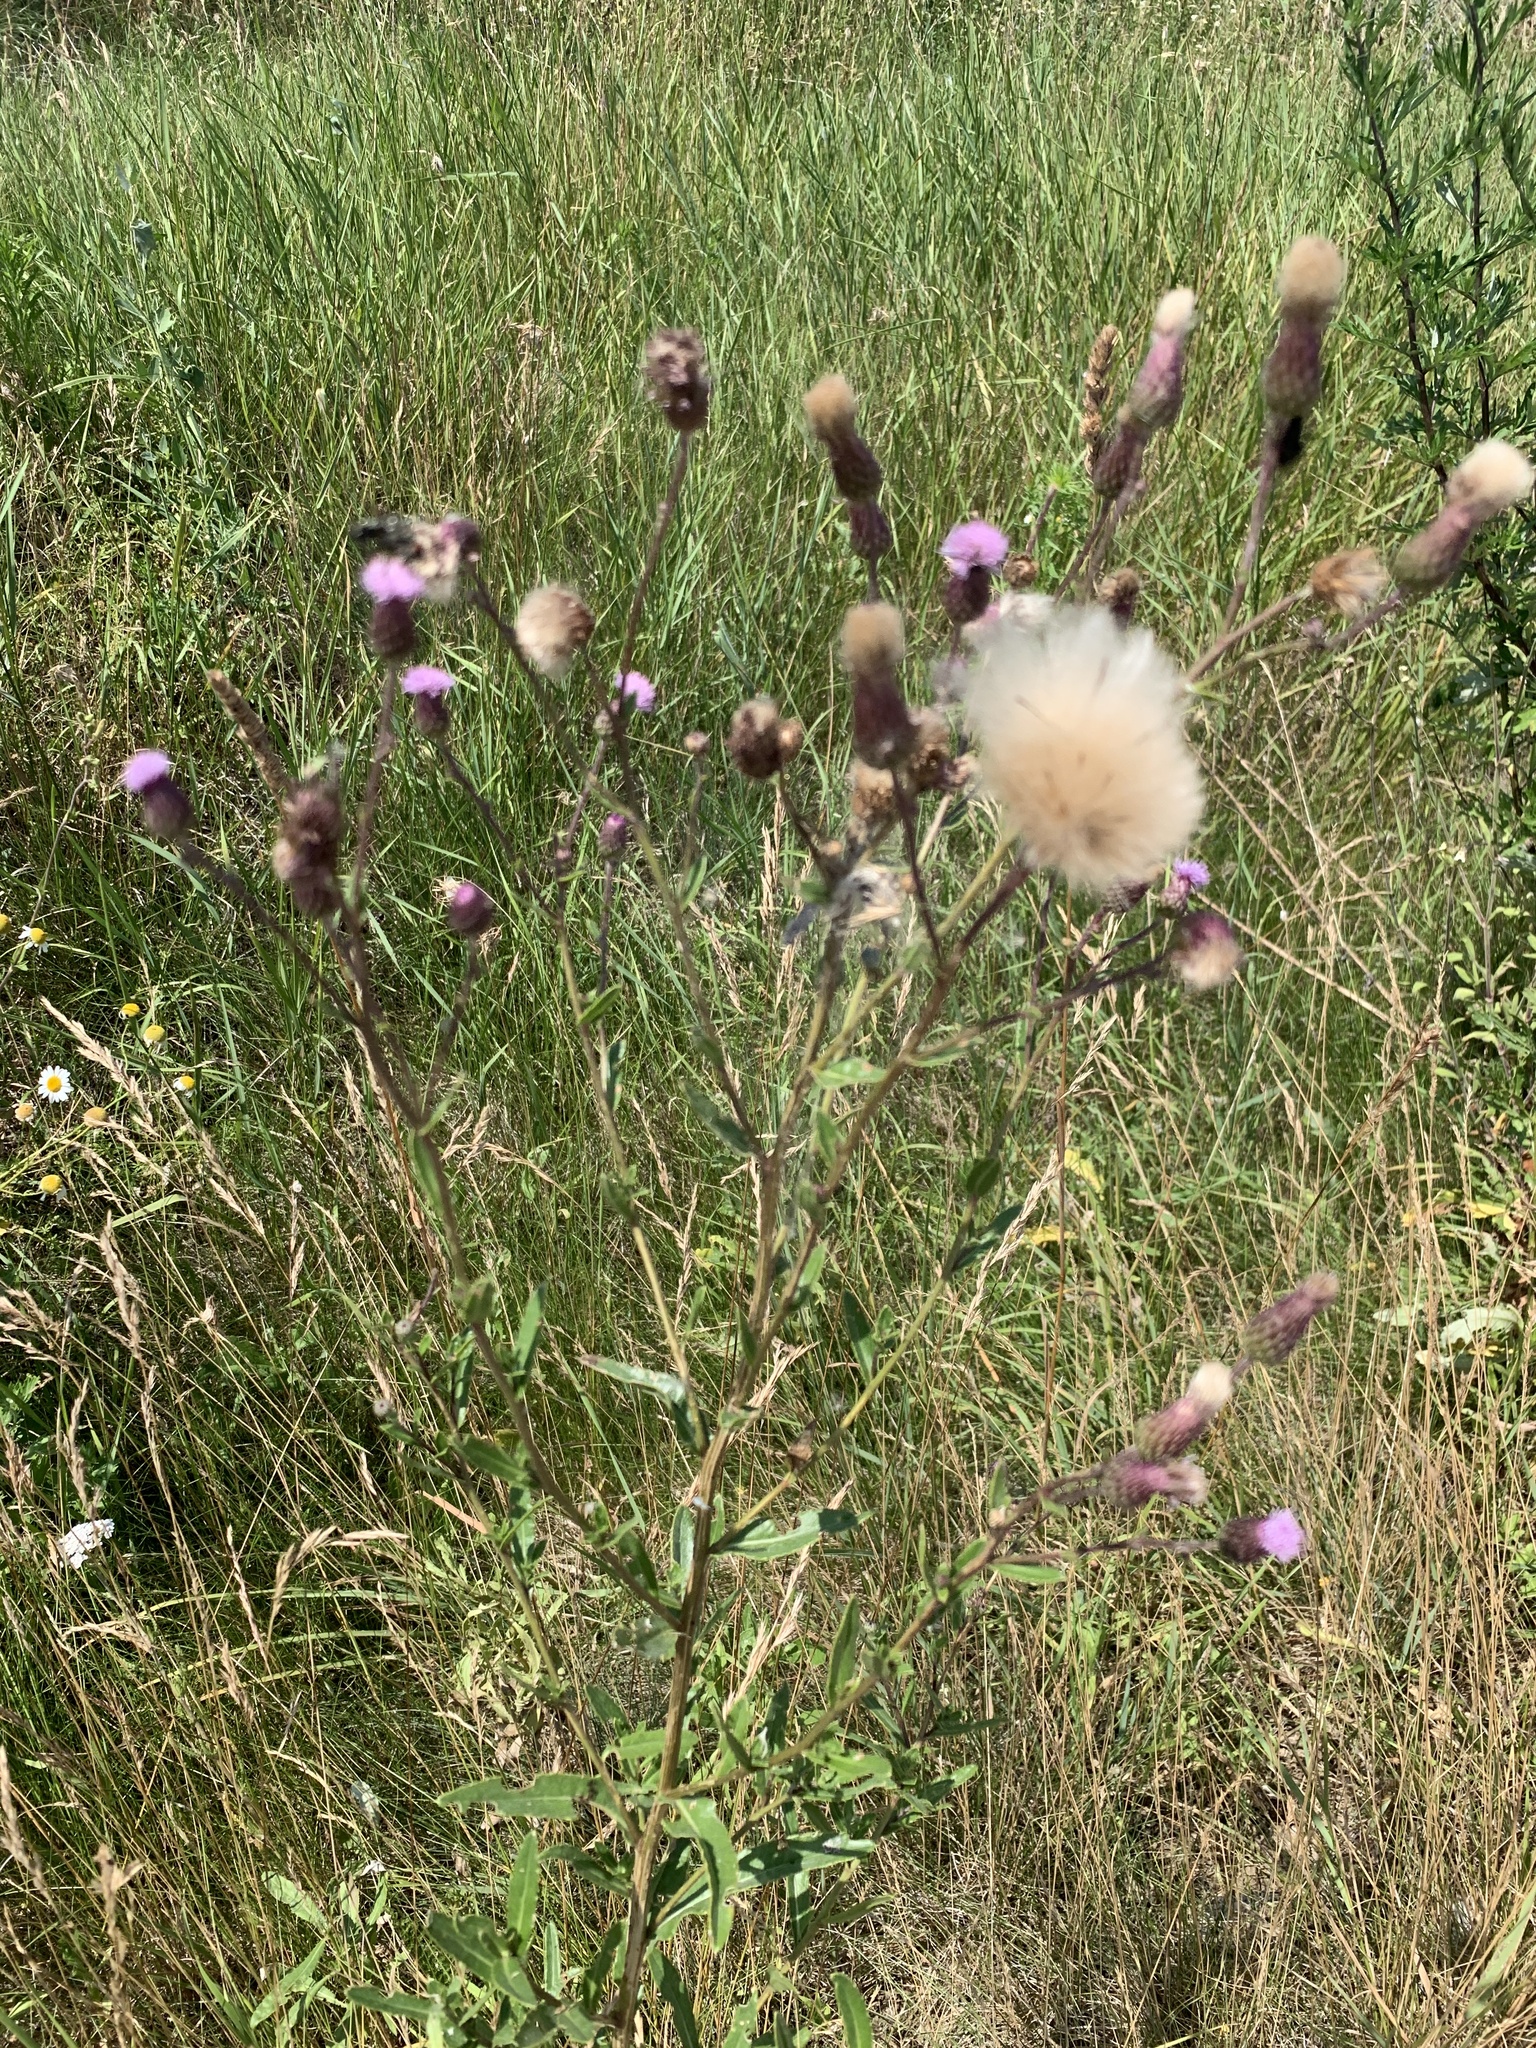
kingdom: Plantae
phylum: Tracheophyta
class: Magnoliopsida
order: Asterales
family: Asteraceae
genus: Cirsium
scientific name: Cirsium arvense
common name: Creeping thistle
